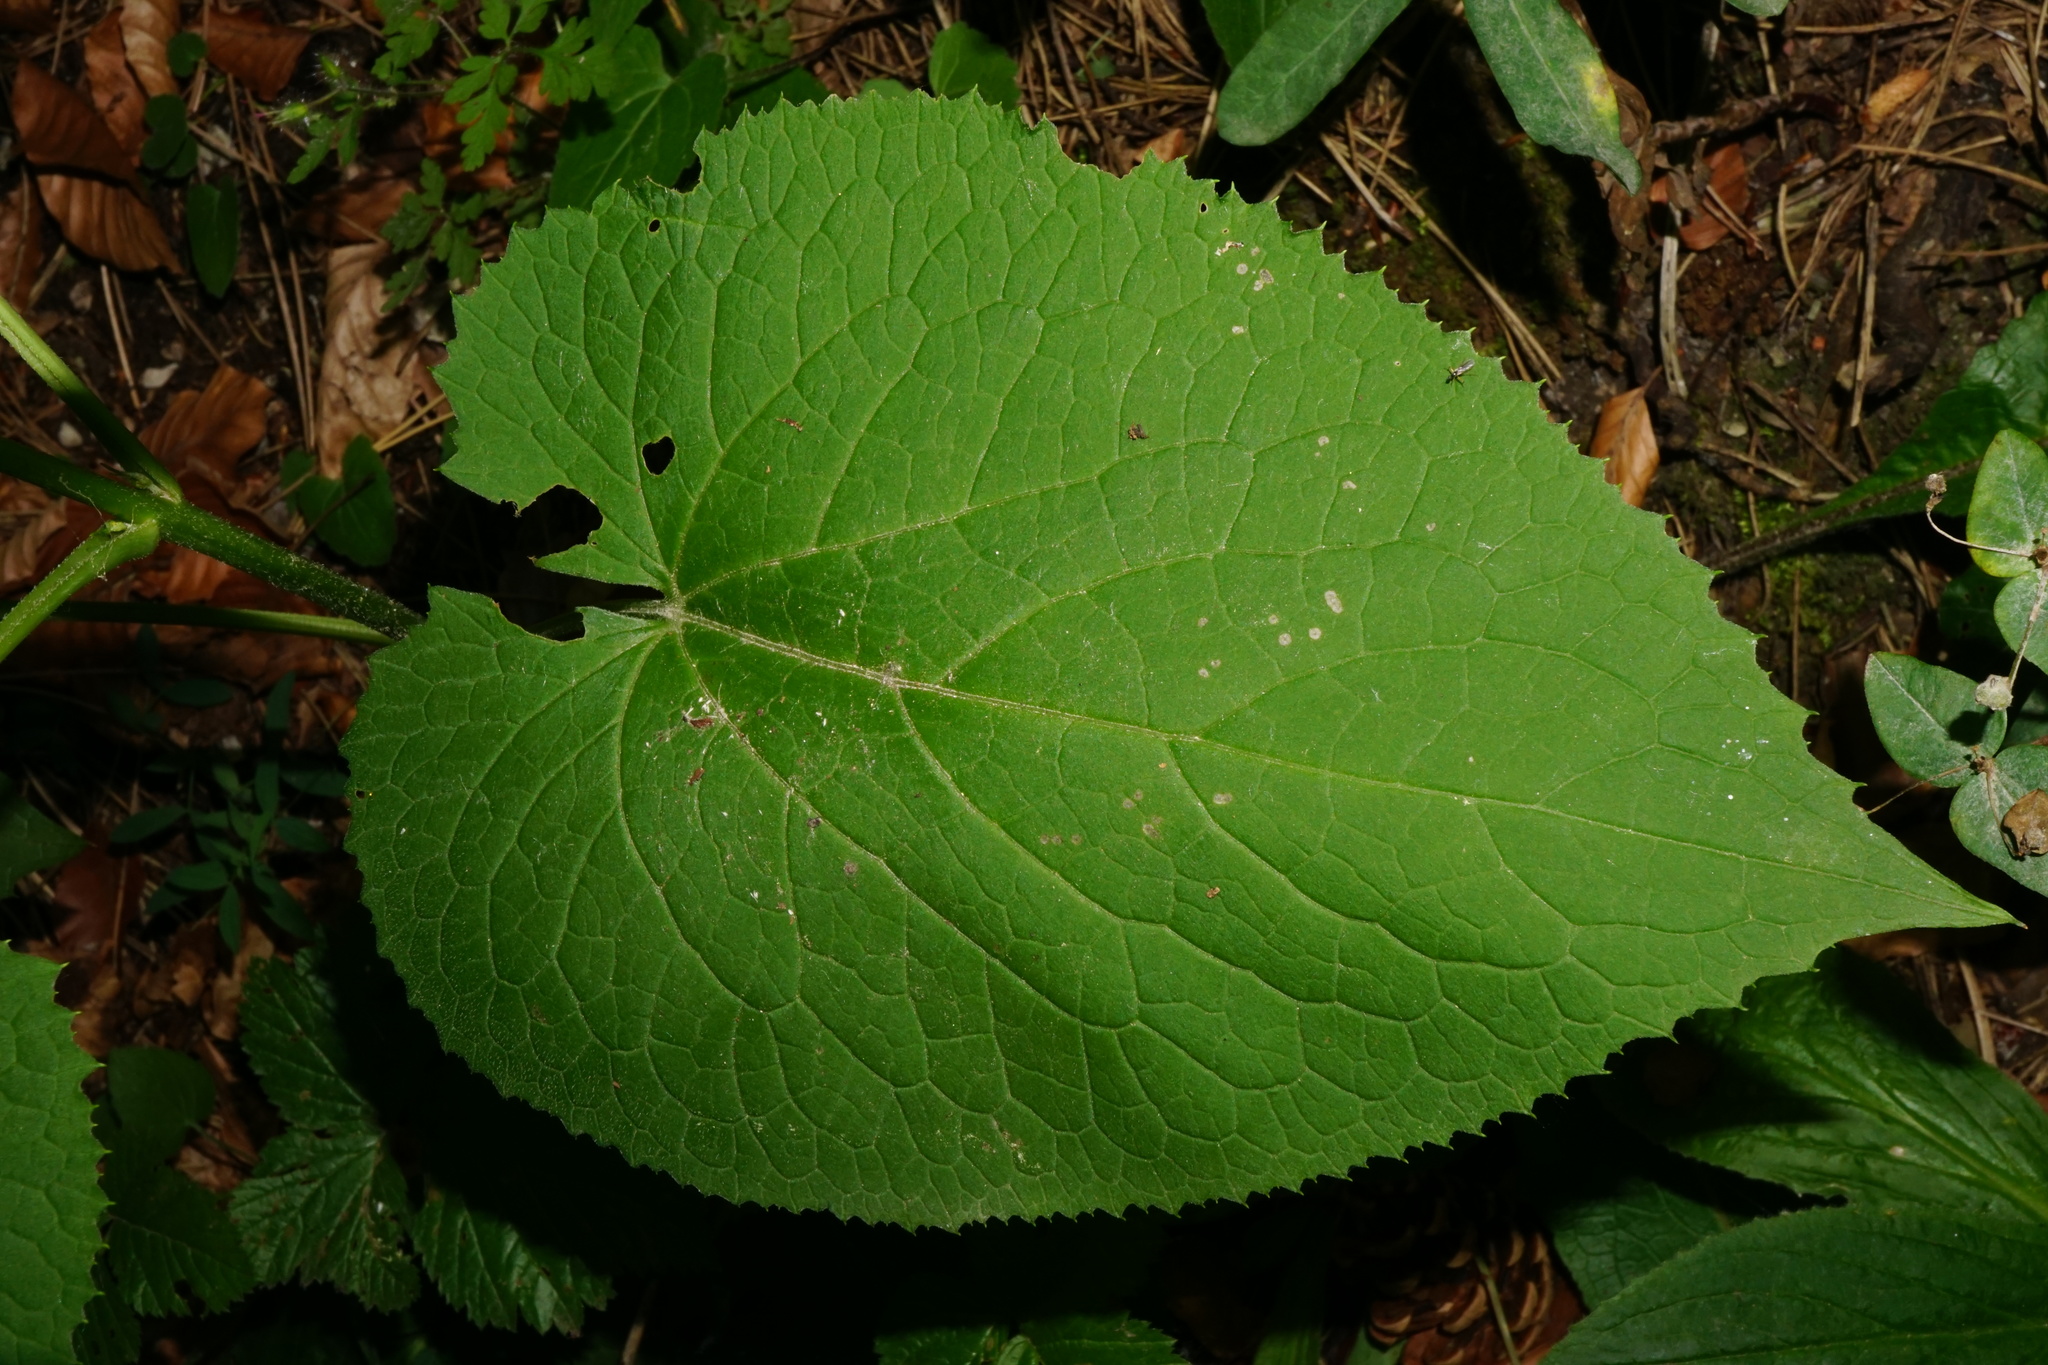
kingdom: Plantae
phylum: Tracheophyta
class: Magnoliopsida
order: Brassicales
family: Brassicaceae
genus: Lunaria
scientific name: Lunaria rediviva
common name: Perennial honesty
